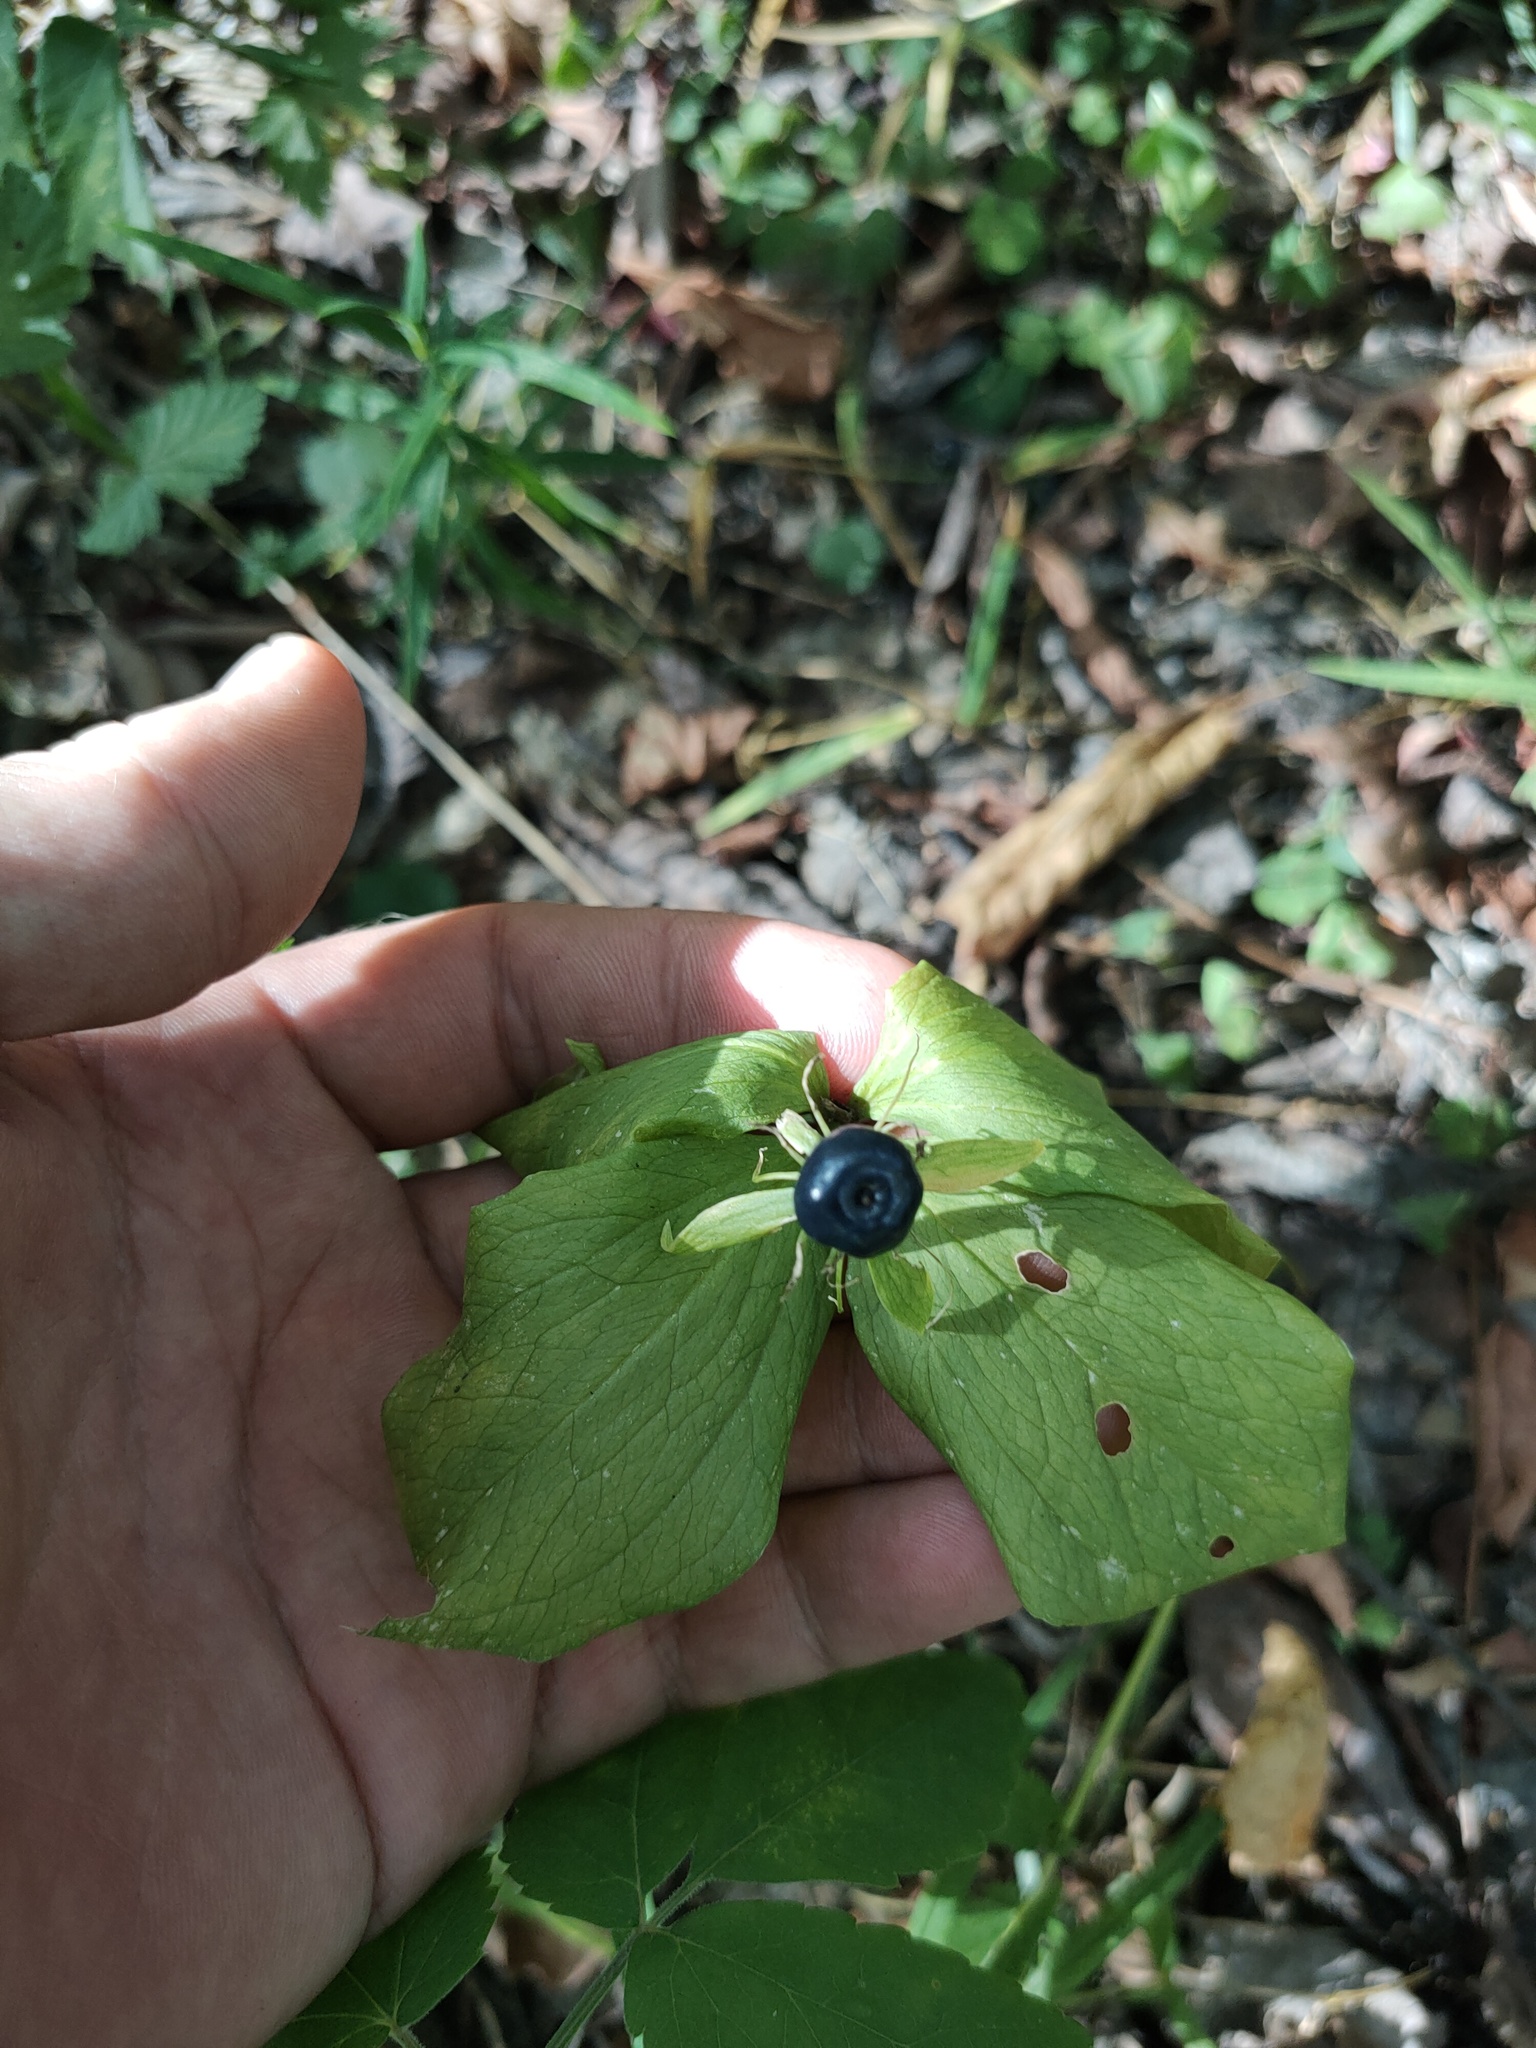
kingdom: Plantae
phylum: Tracheophyta
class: Liliopsida
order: Liliales
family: Melanthiaceae
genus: Paris
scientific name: Paris quadrifolia
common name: Herb-paris
